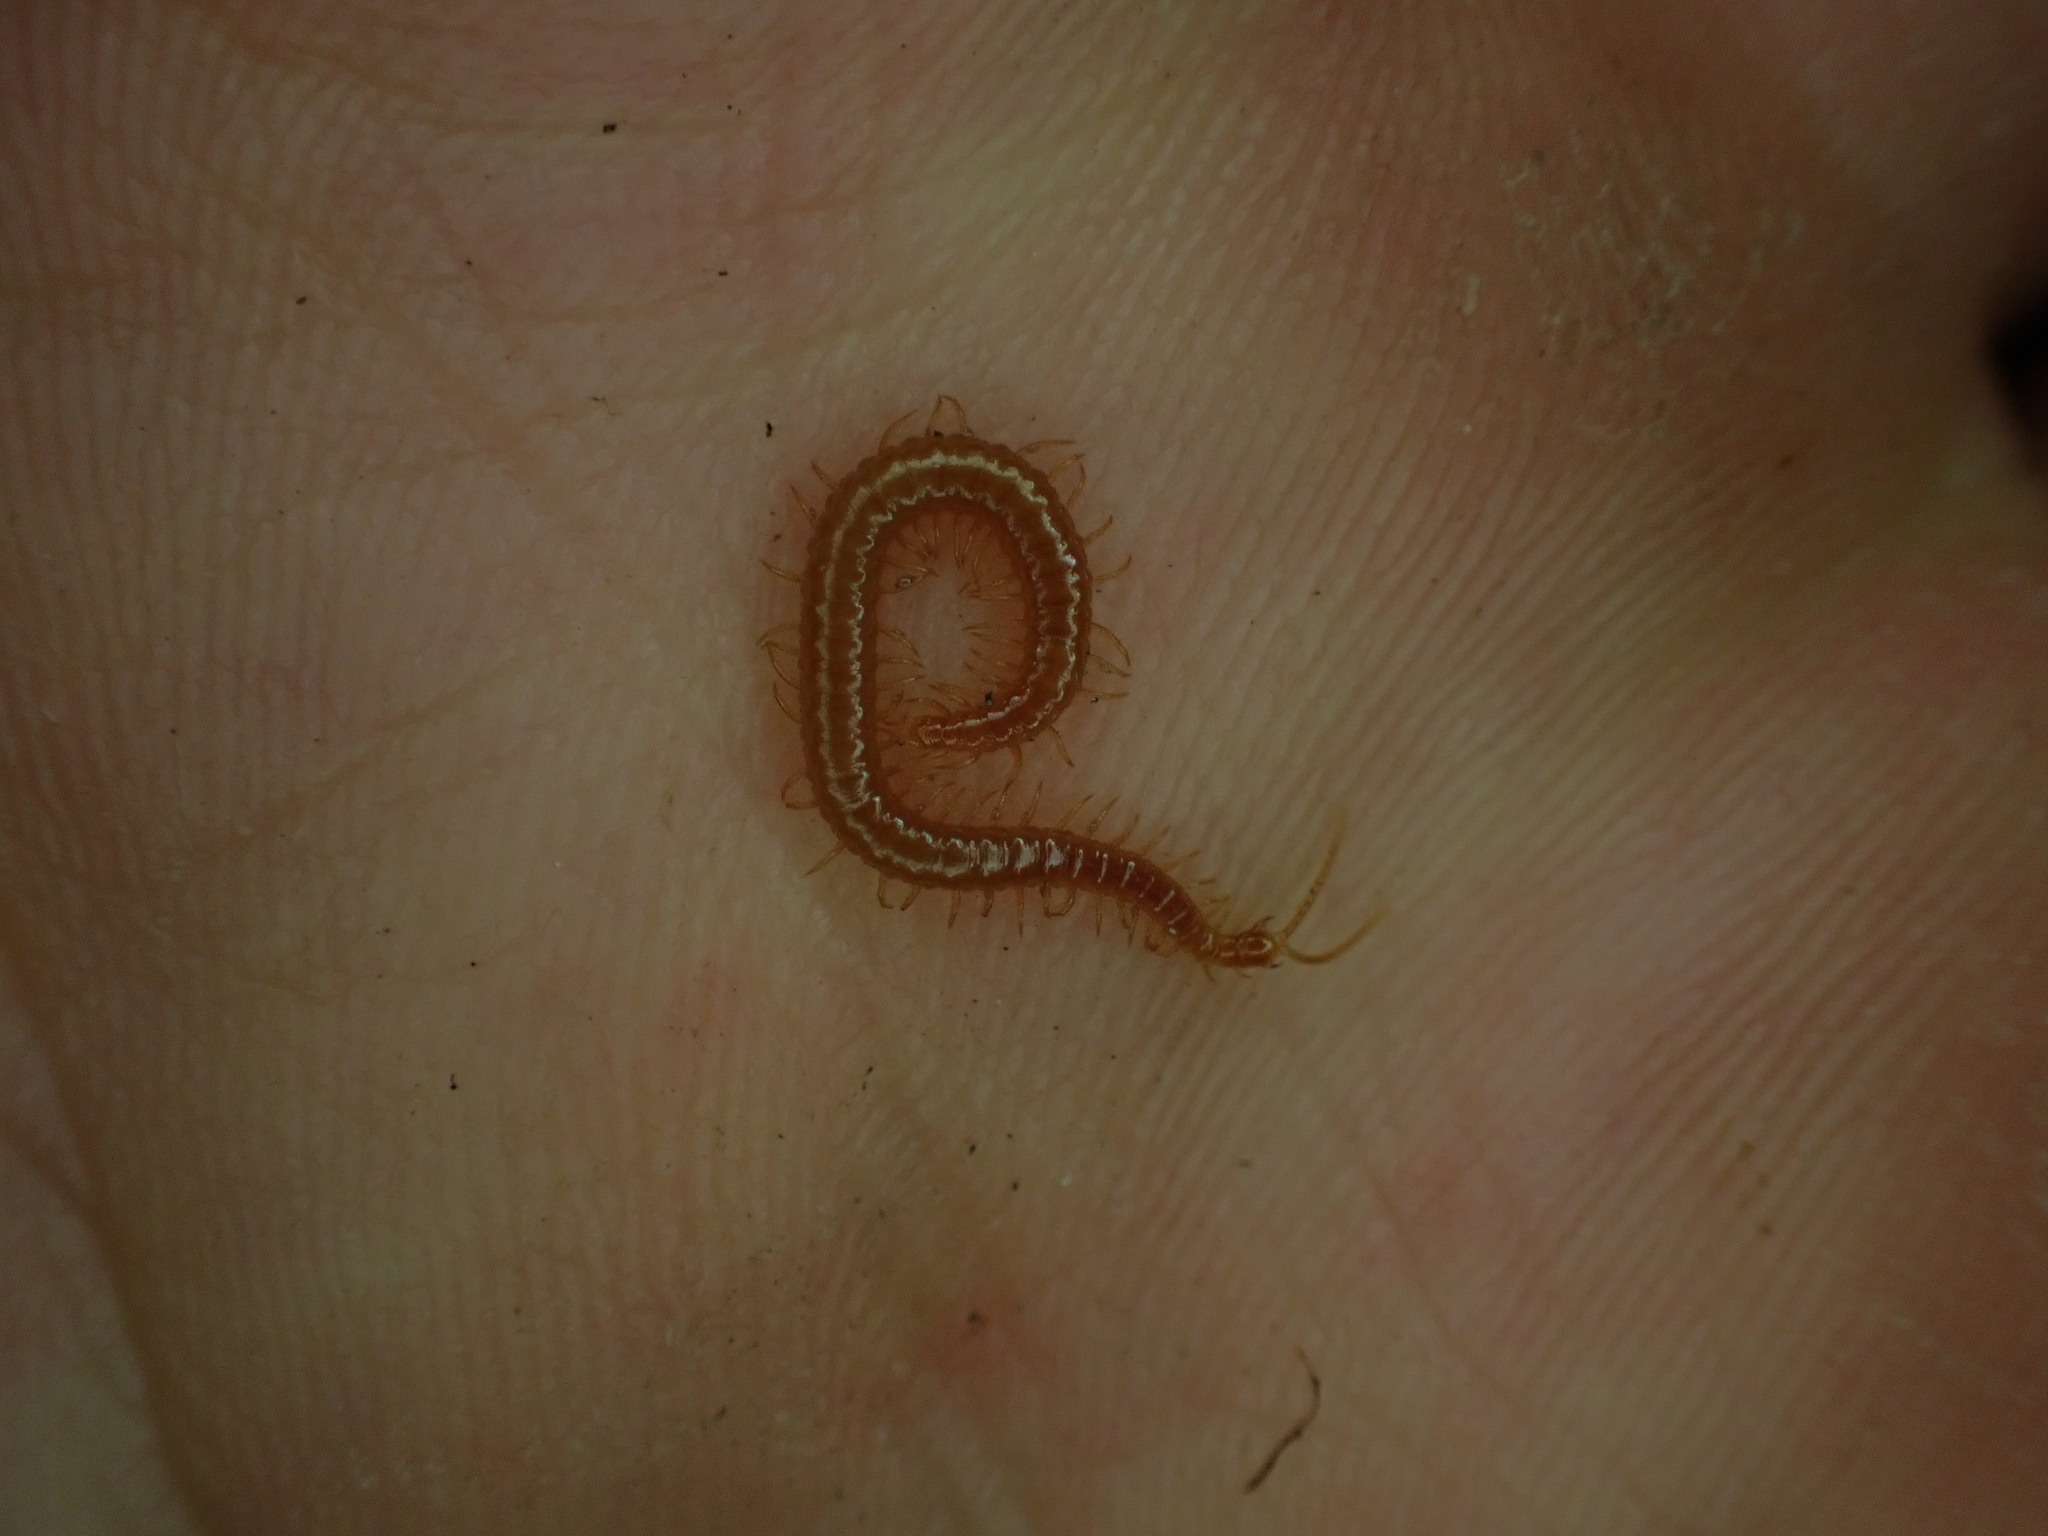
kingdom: Animalia
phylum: Arthropoda
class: Chilopoda
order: Geophilomorpha
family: Linotaeniidae
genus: Strigamia
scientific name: Strigamia acuminata
